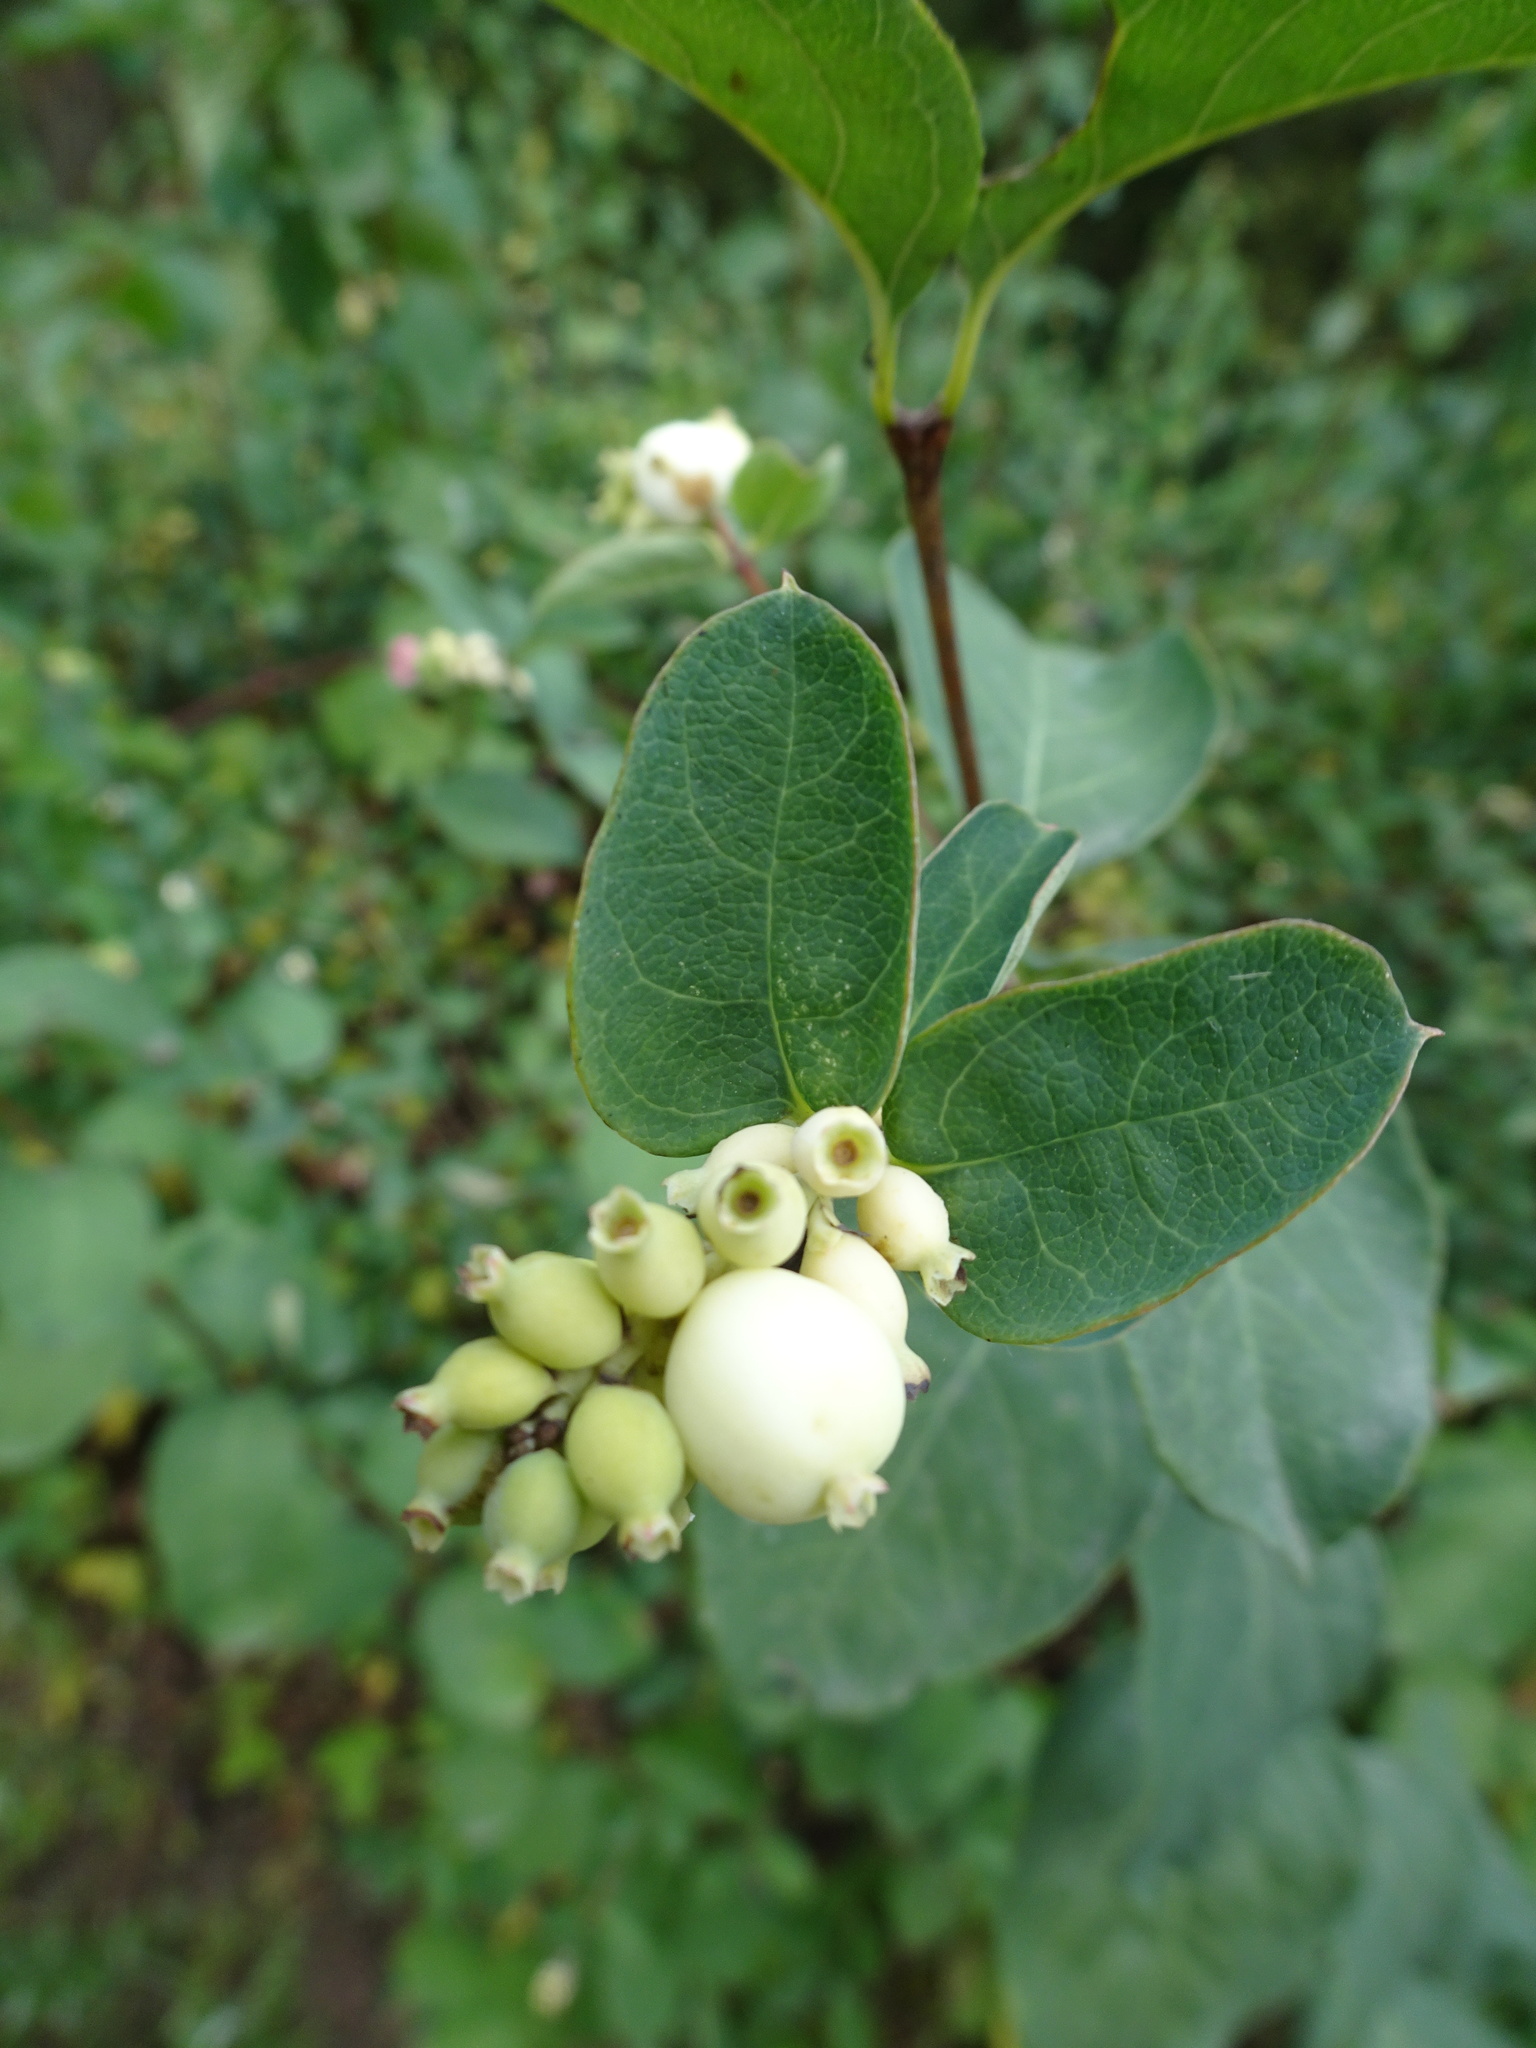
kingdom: Plantae
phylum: Tracheophyta
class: Magnoliopsida
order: Dipsacales
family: Caprifoliaceae
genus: Symphoricarpos
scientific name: Symphoricarpos albus
